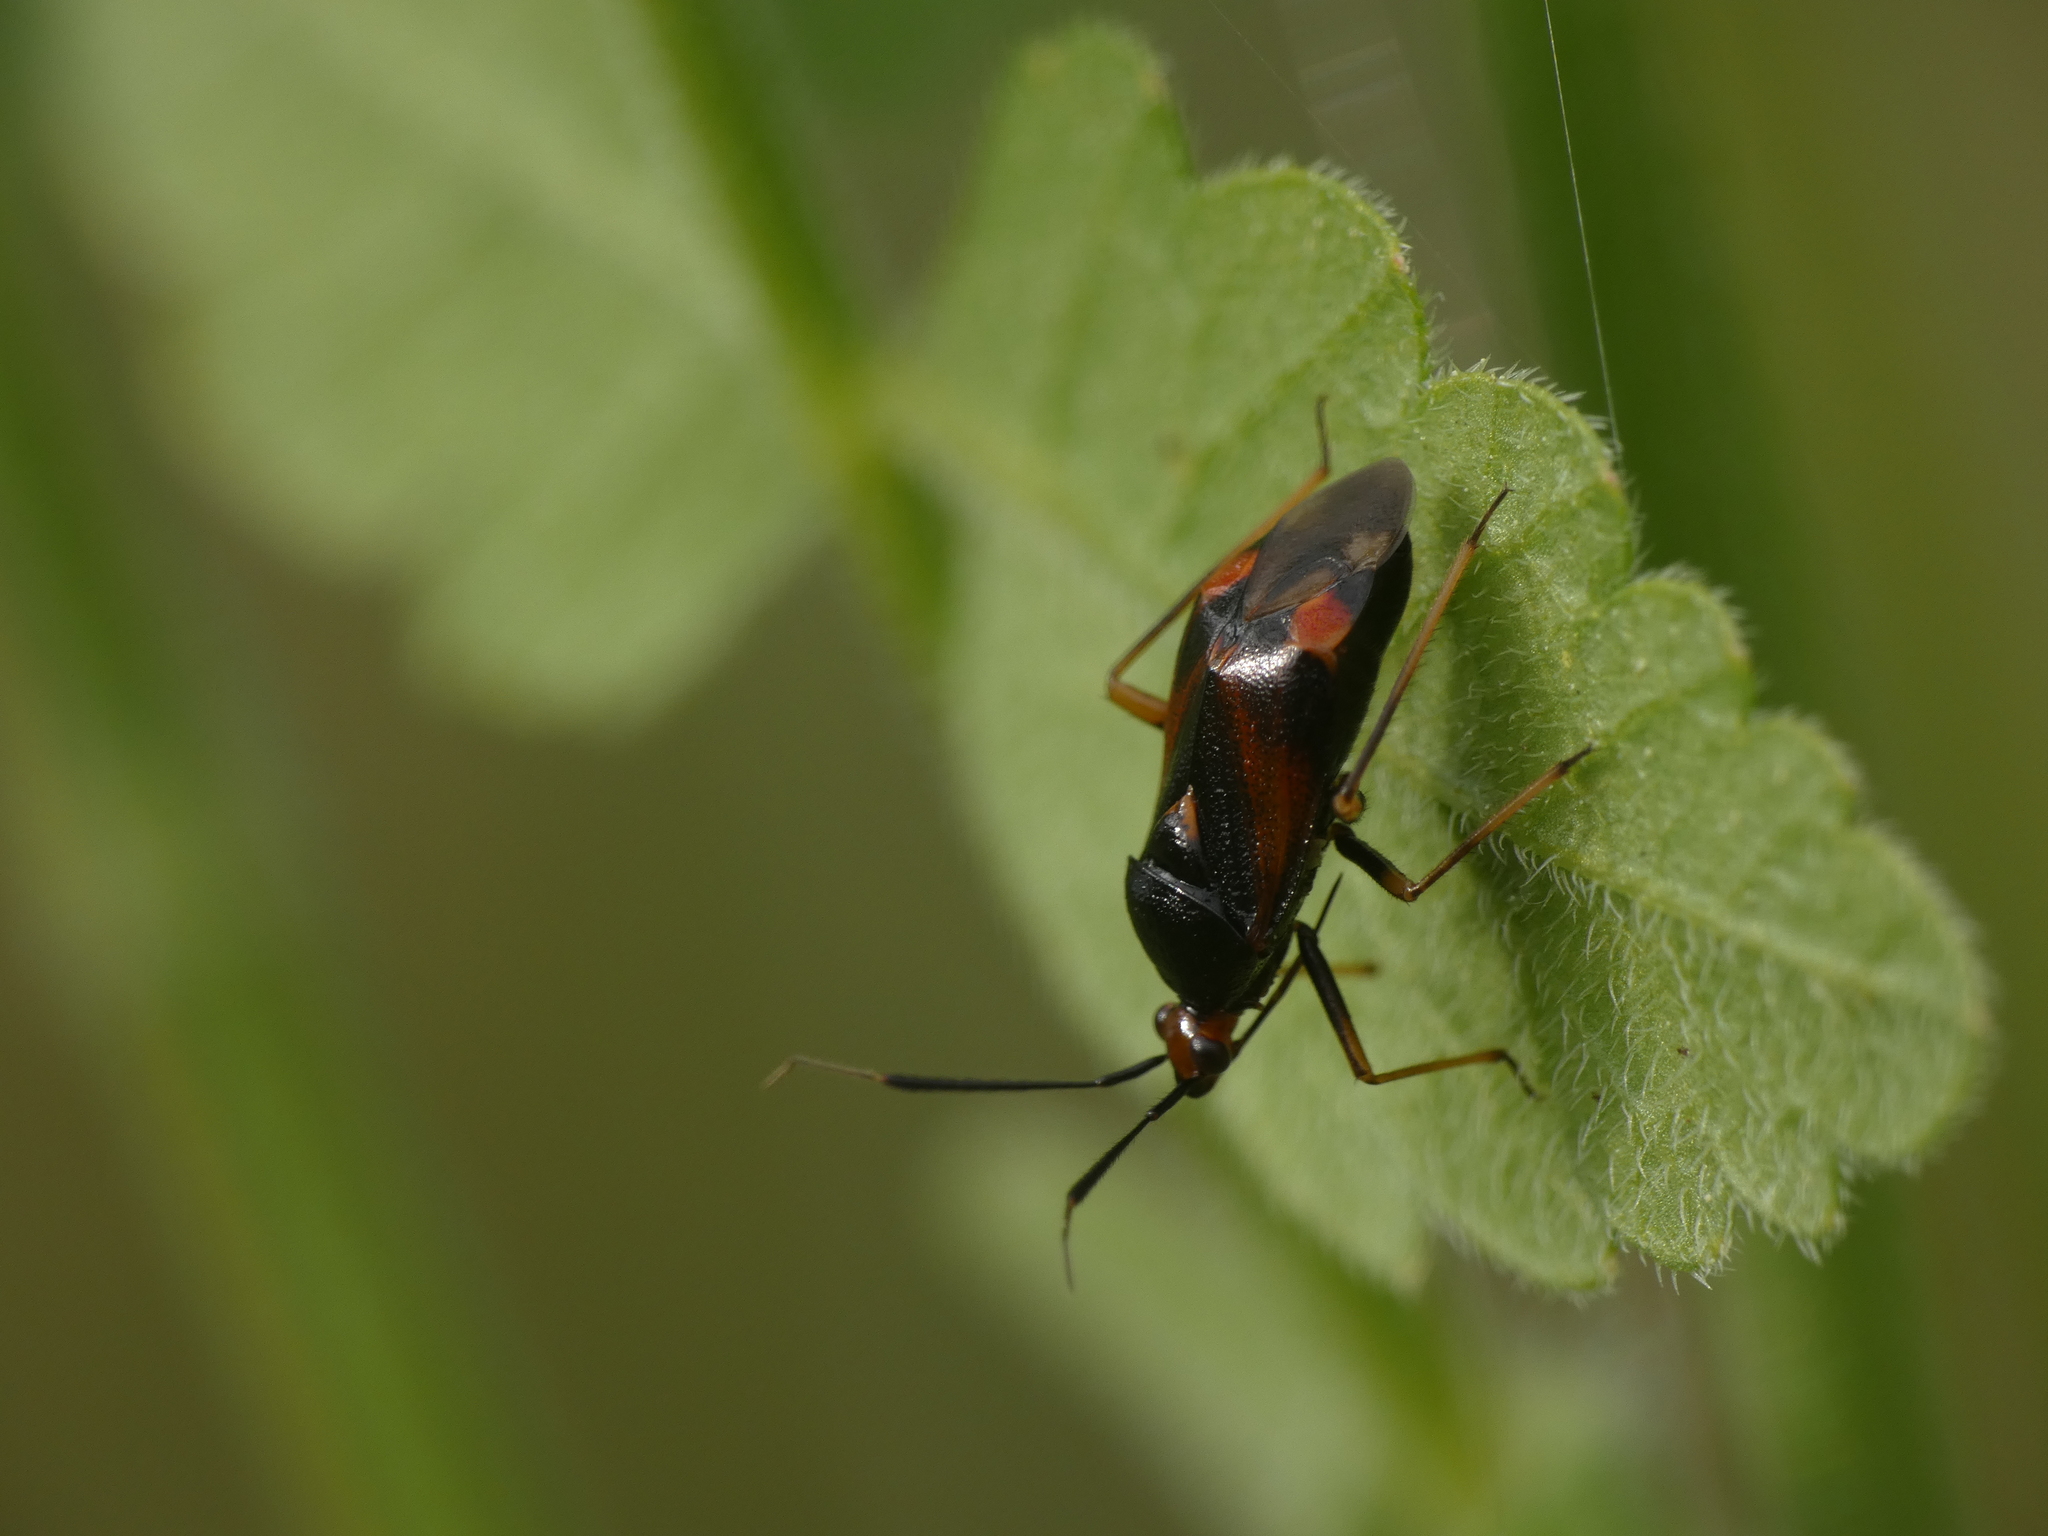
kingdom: Animalia
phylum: Arthropoda
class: Insecta
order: Hemiptera
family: Miridae
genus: Deraeocoris
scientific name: Deraeocoris ruber
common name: Plant bug
